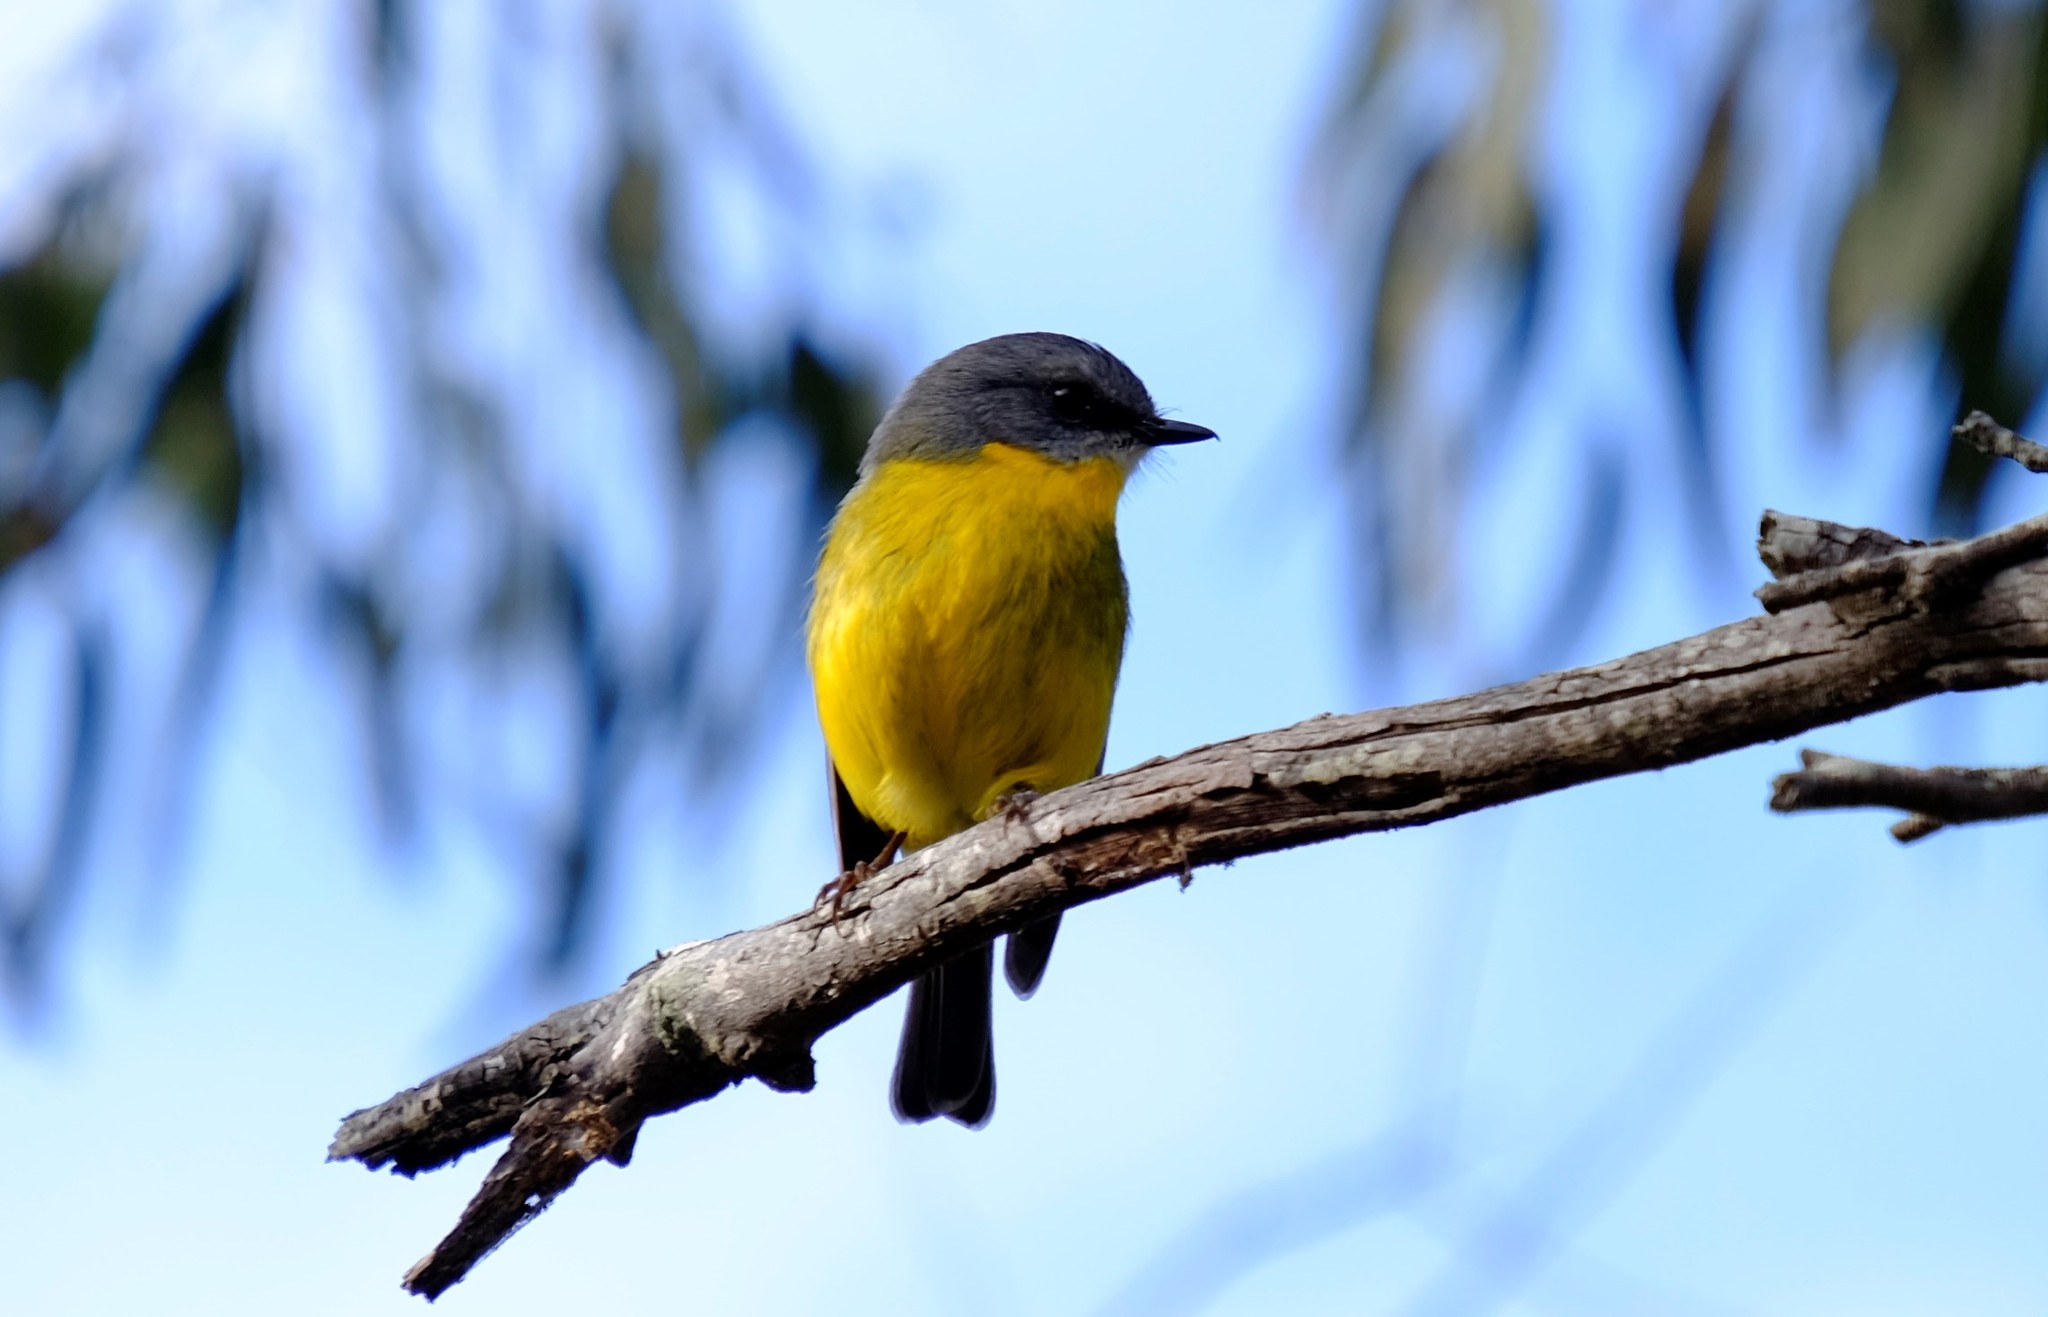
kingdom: Animalia
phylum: Chordata
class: Aves
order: Passeriformes
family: Petroicidae
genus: Eopsaltria
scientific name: Eopsaltria australis
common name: Eastern yellow robin
